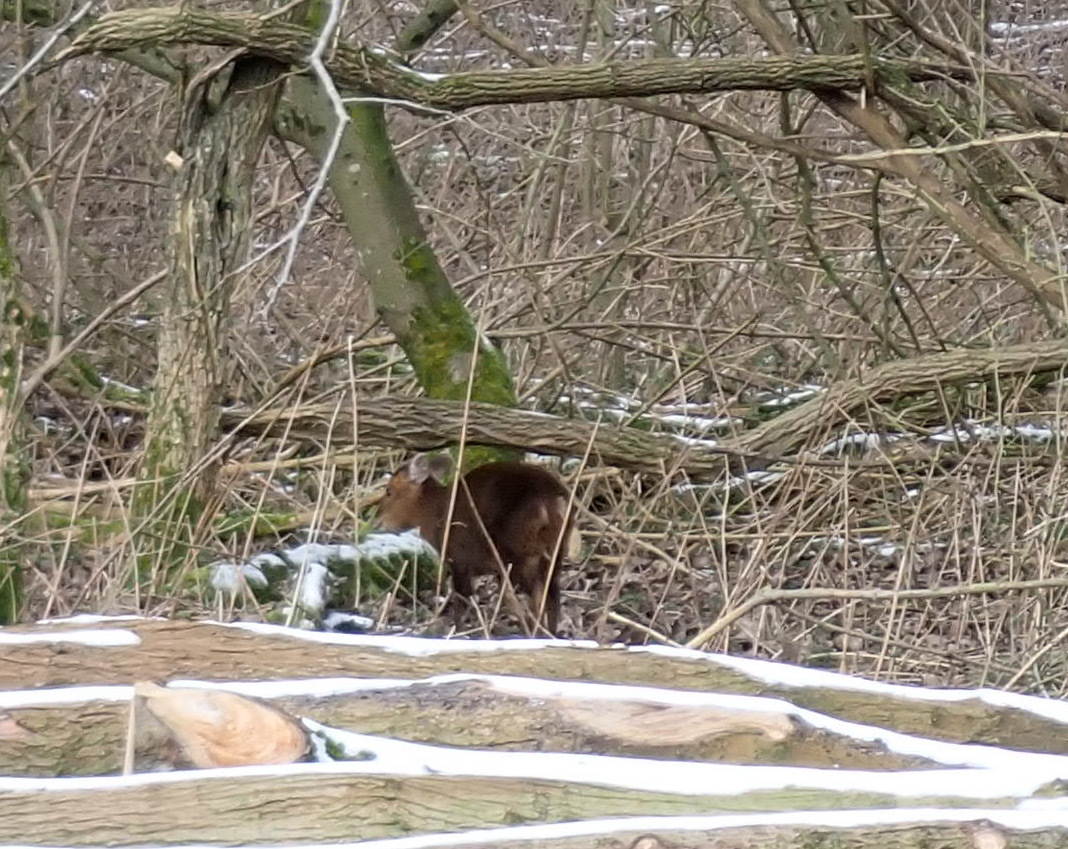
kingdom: Animalia
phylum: Chordata
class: Mammalia
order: Artiodactyla
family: Cervidae
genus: Muntiacus
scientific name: Muntiacus reevesi
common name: Reeves' muntjac
